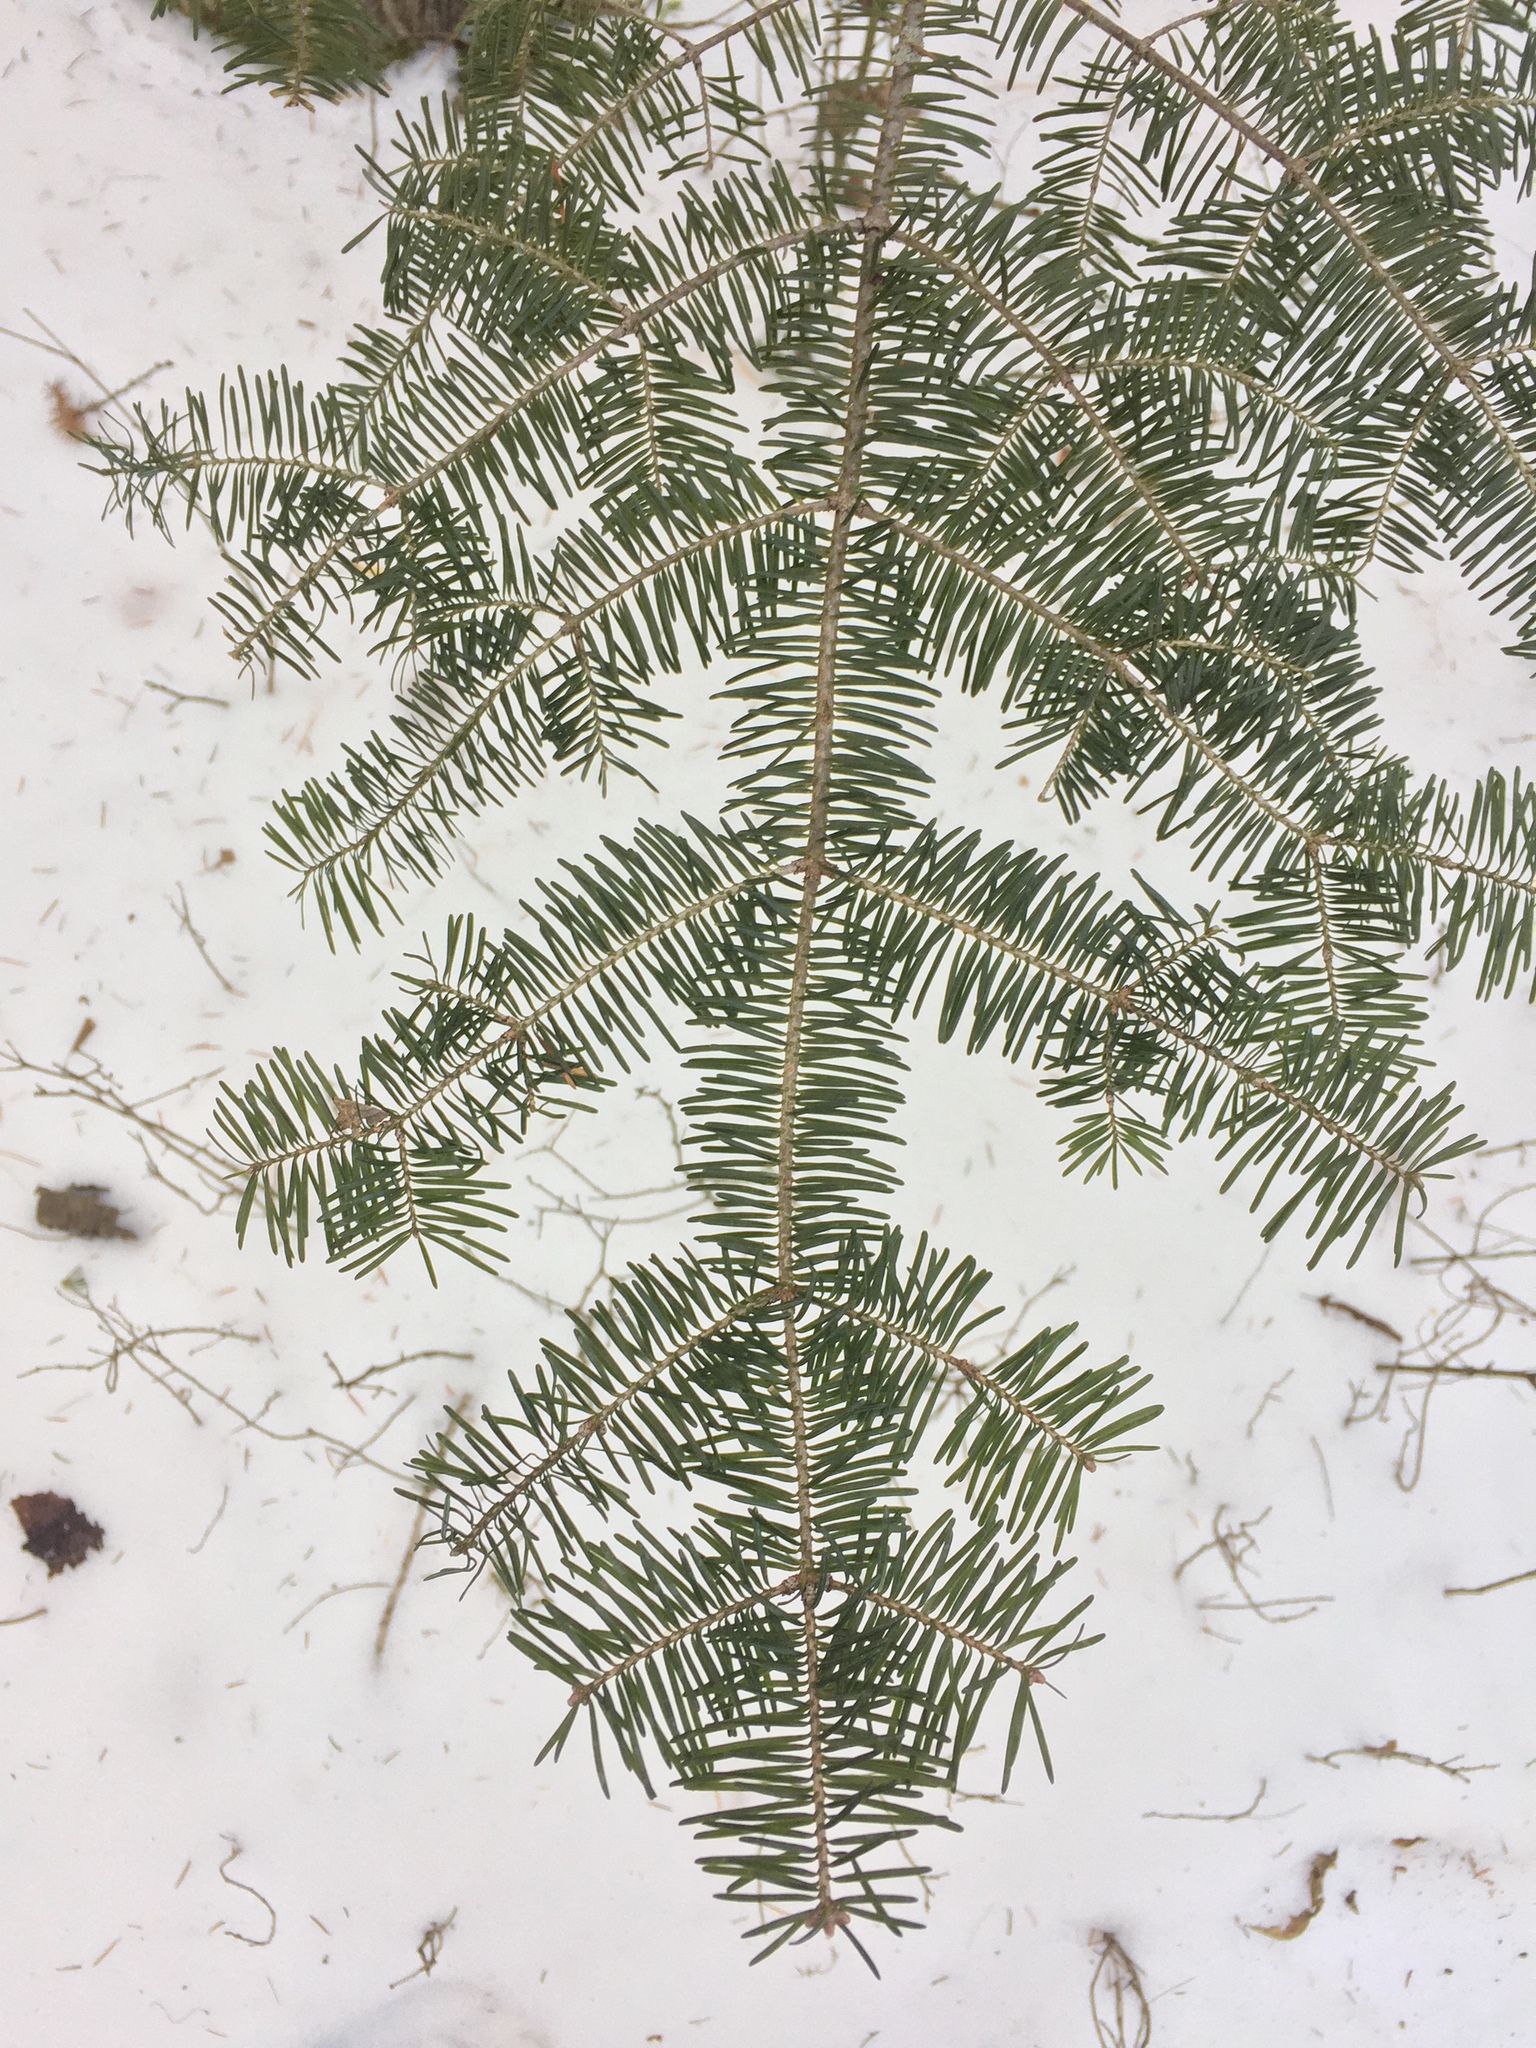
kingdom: Plantae
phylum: Tracheophyta
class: Pinopsida
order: Pinales
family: Pinaceae
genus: Abies
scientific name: Abies balsamea
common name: Balsam fir
